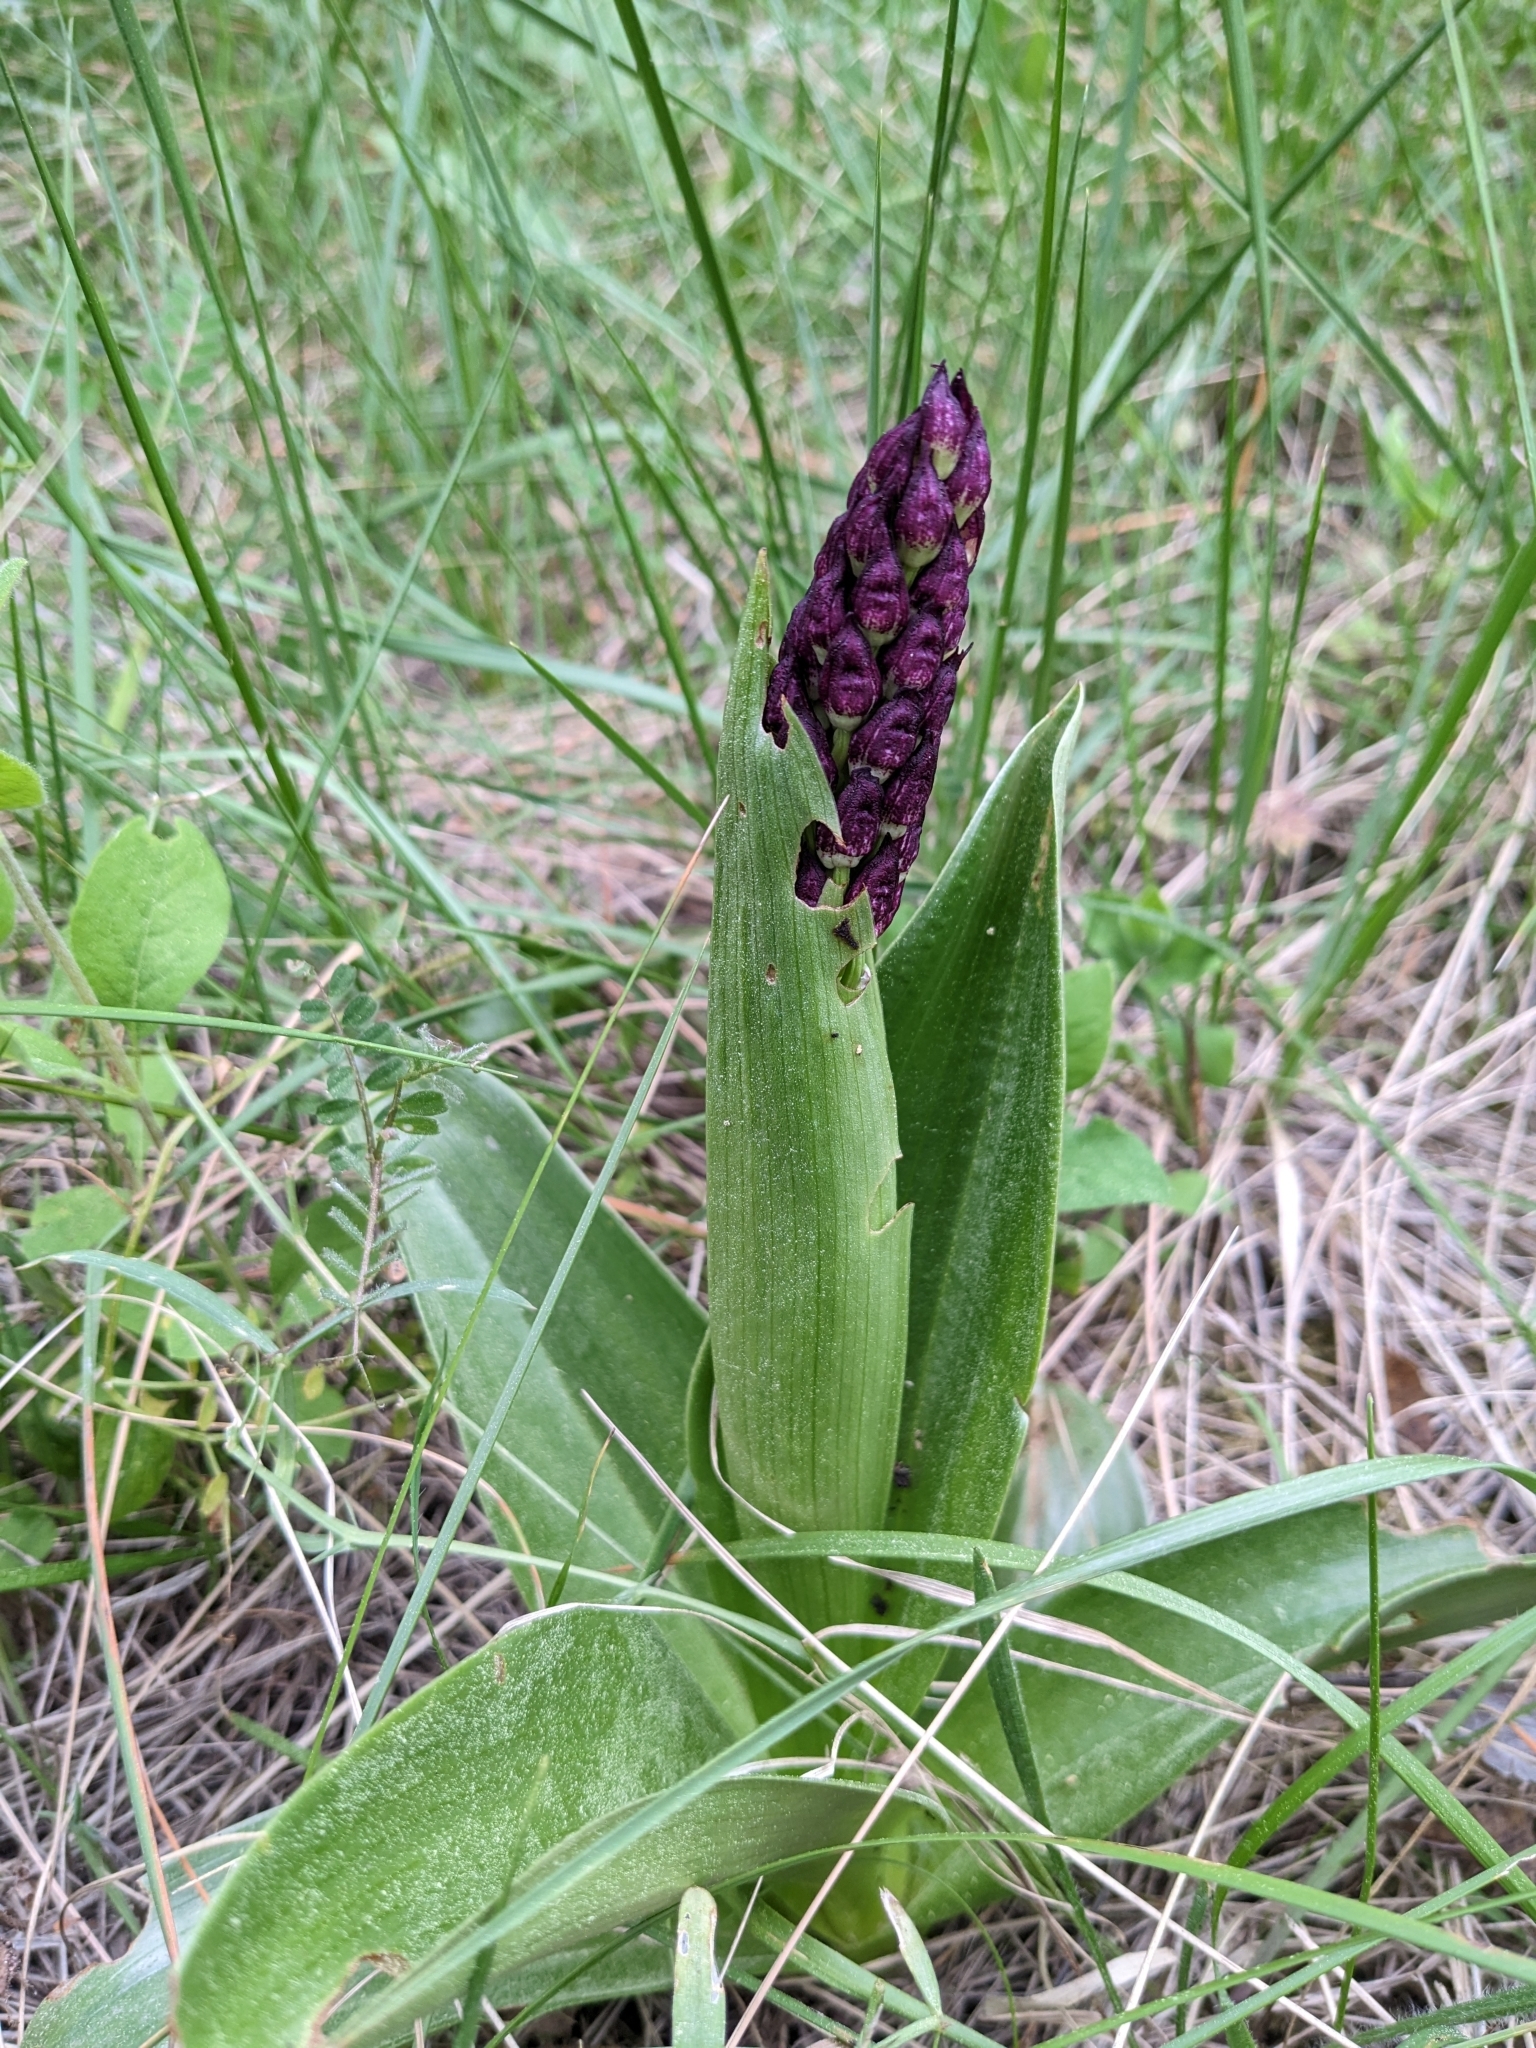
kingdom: Plantae
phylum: Tracheophyta
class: Liliopsida
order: Asparagales
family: Orchidaceae
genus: Orchis
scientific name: Orchis purpurea
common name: Lady orchid
